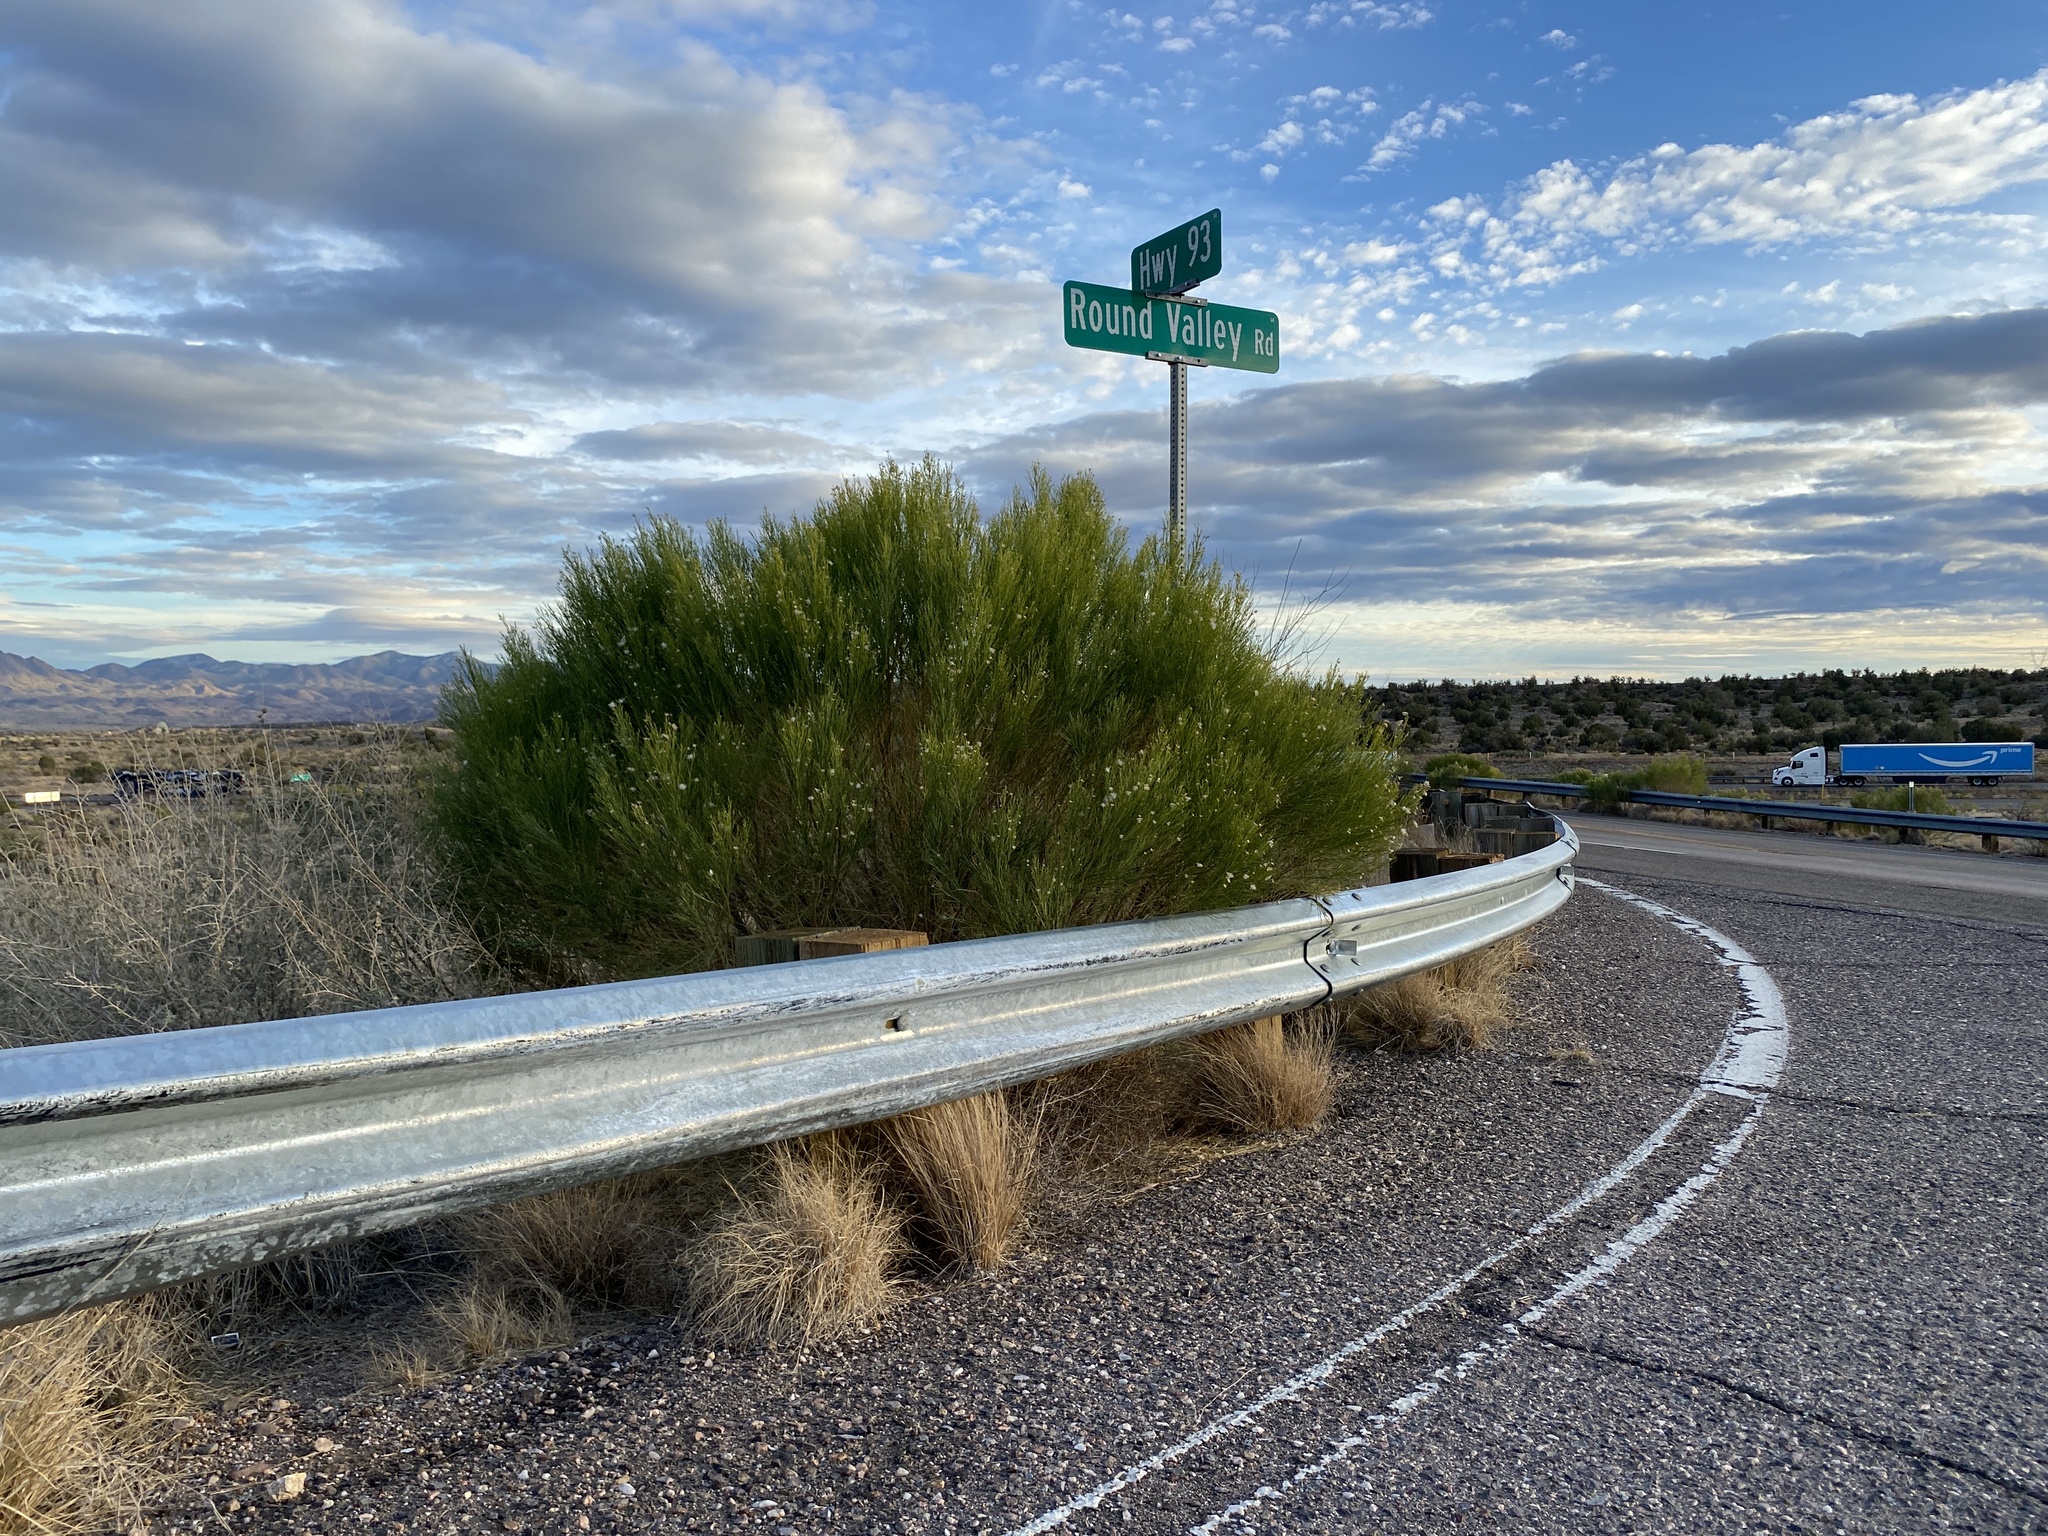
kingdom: Plantae
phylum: Tracheophyta
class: Magnoliopsida
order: Asterales
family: Asteraceae
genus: Baccharis
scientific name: Baccharis sarothroides
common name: Desert-broom
